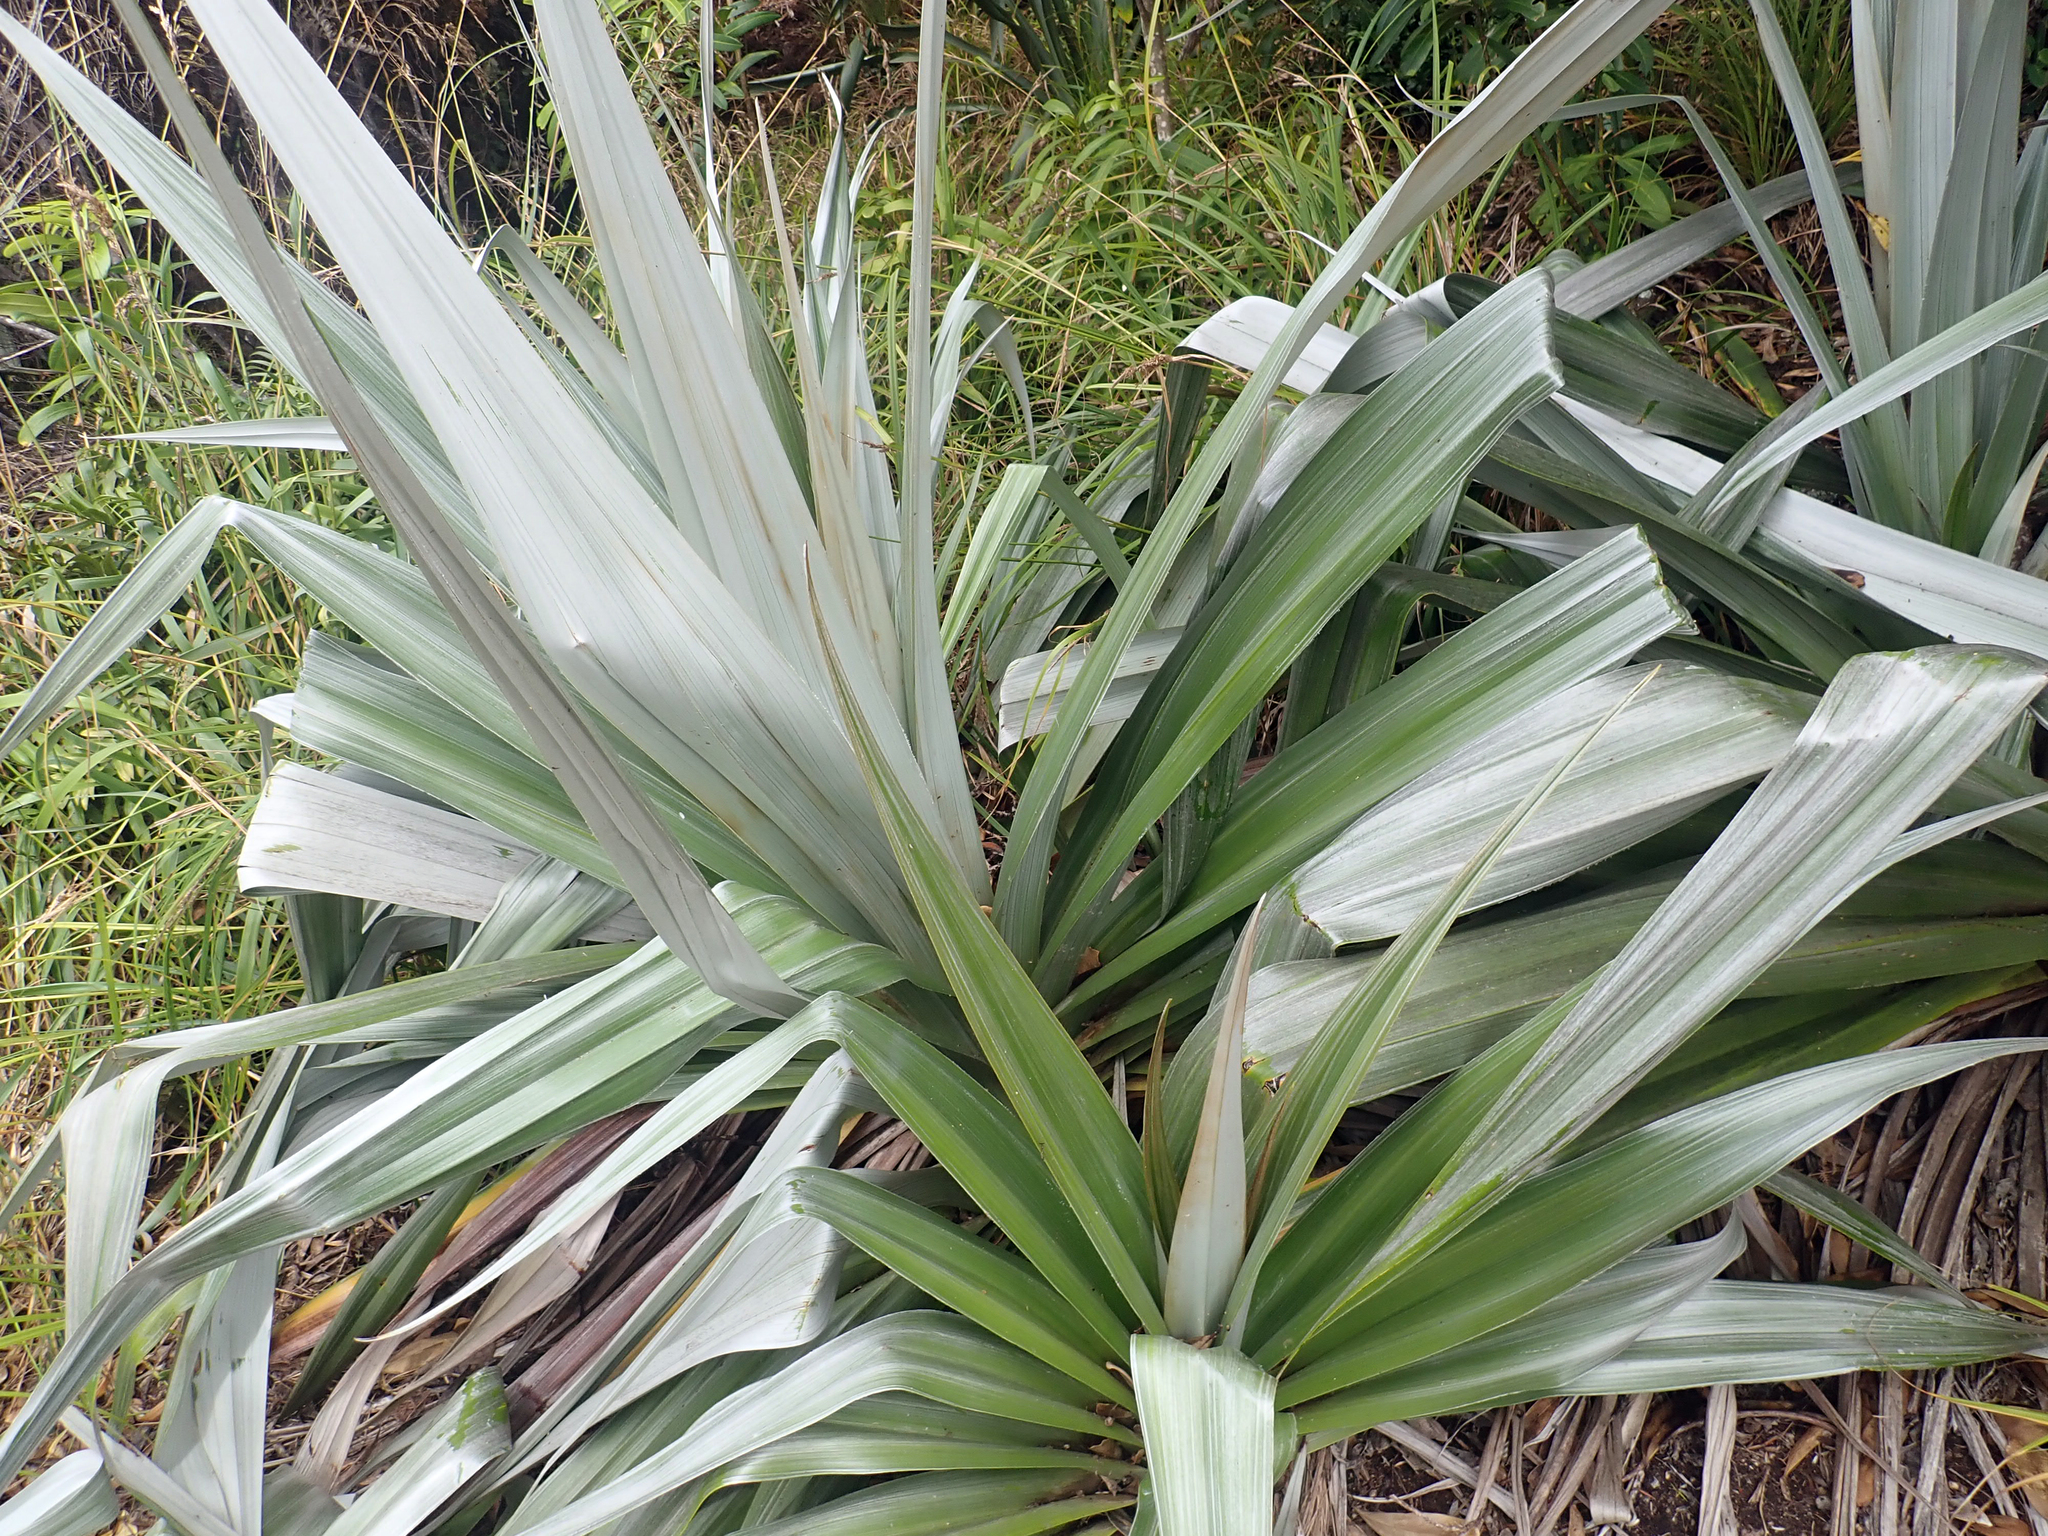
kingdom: Plantae
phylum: Tracheophyta
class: Liliopsida
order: Asparagales
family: Asteliaceae
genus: Astelia
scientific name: Astelia chathamica
